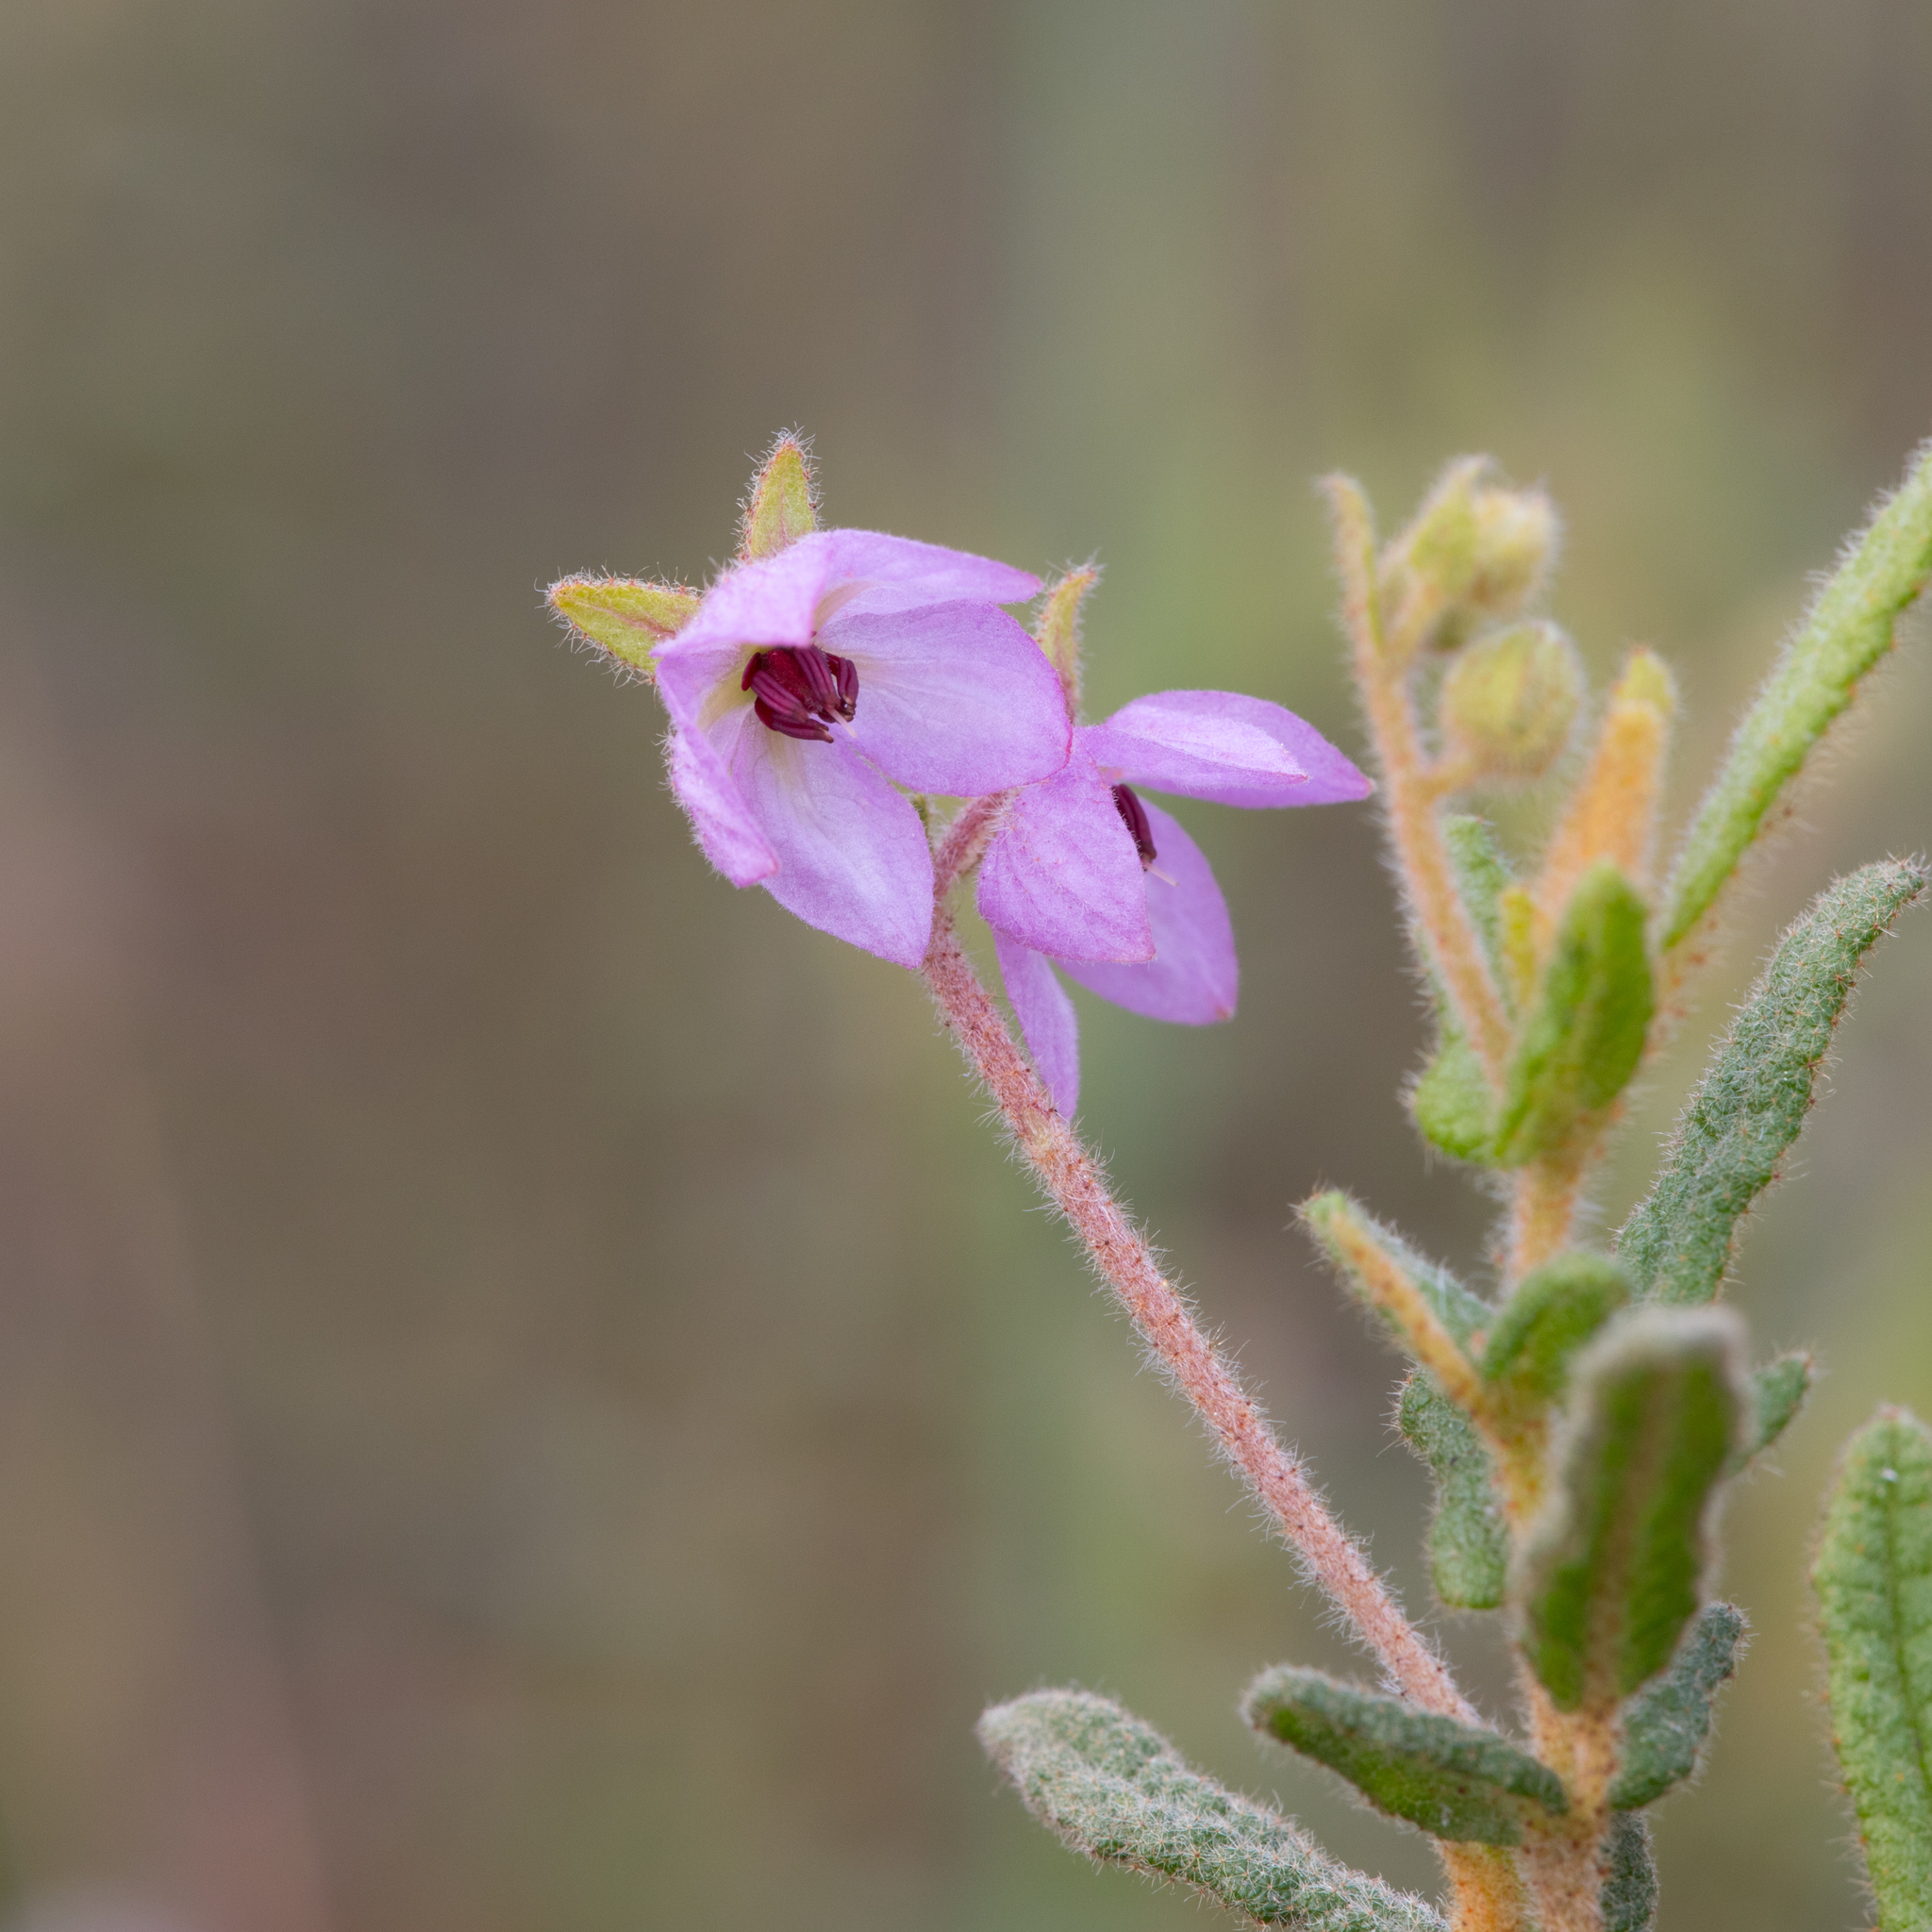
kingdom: Plantae
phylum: Tracheophyta
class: Magnoliopsida
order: Malvales
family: Malvaceae
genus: Thomasia
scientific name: Thomasia petalocalyx
